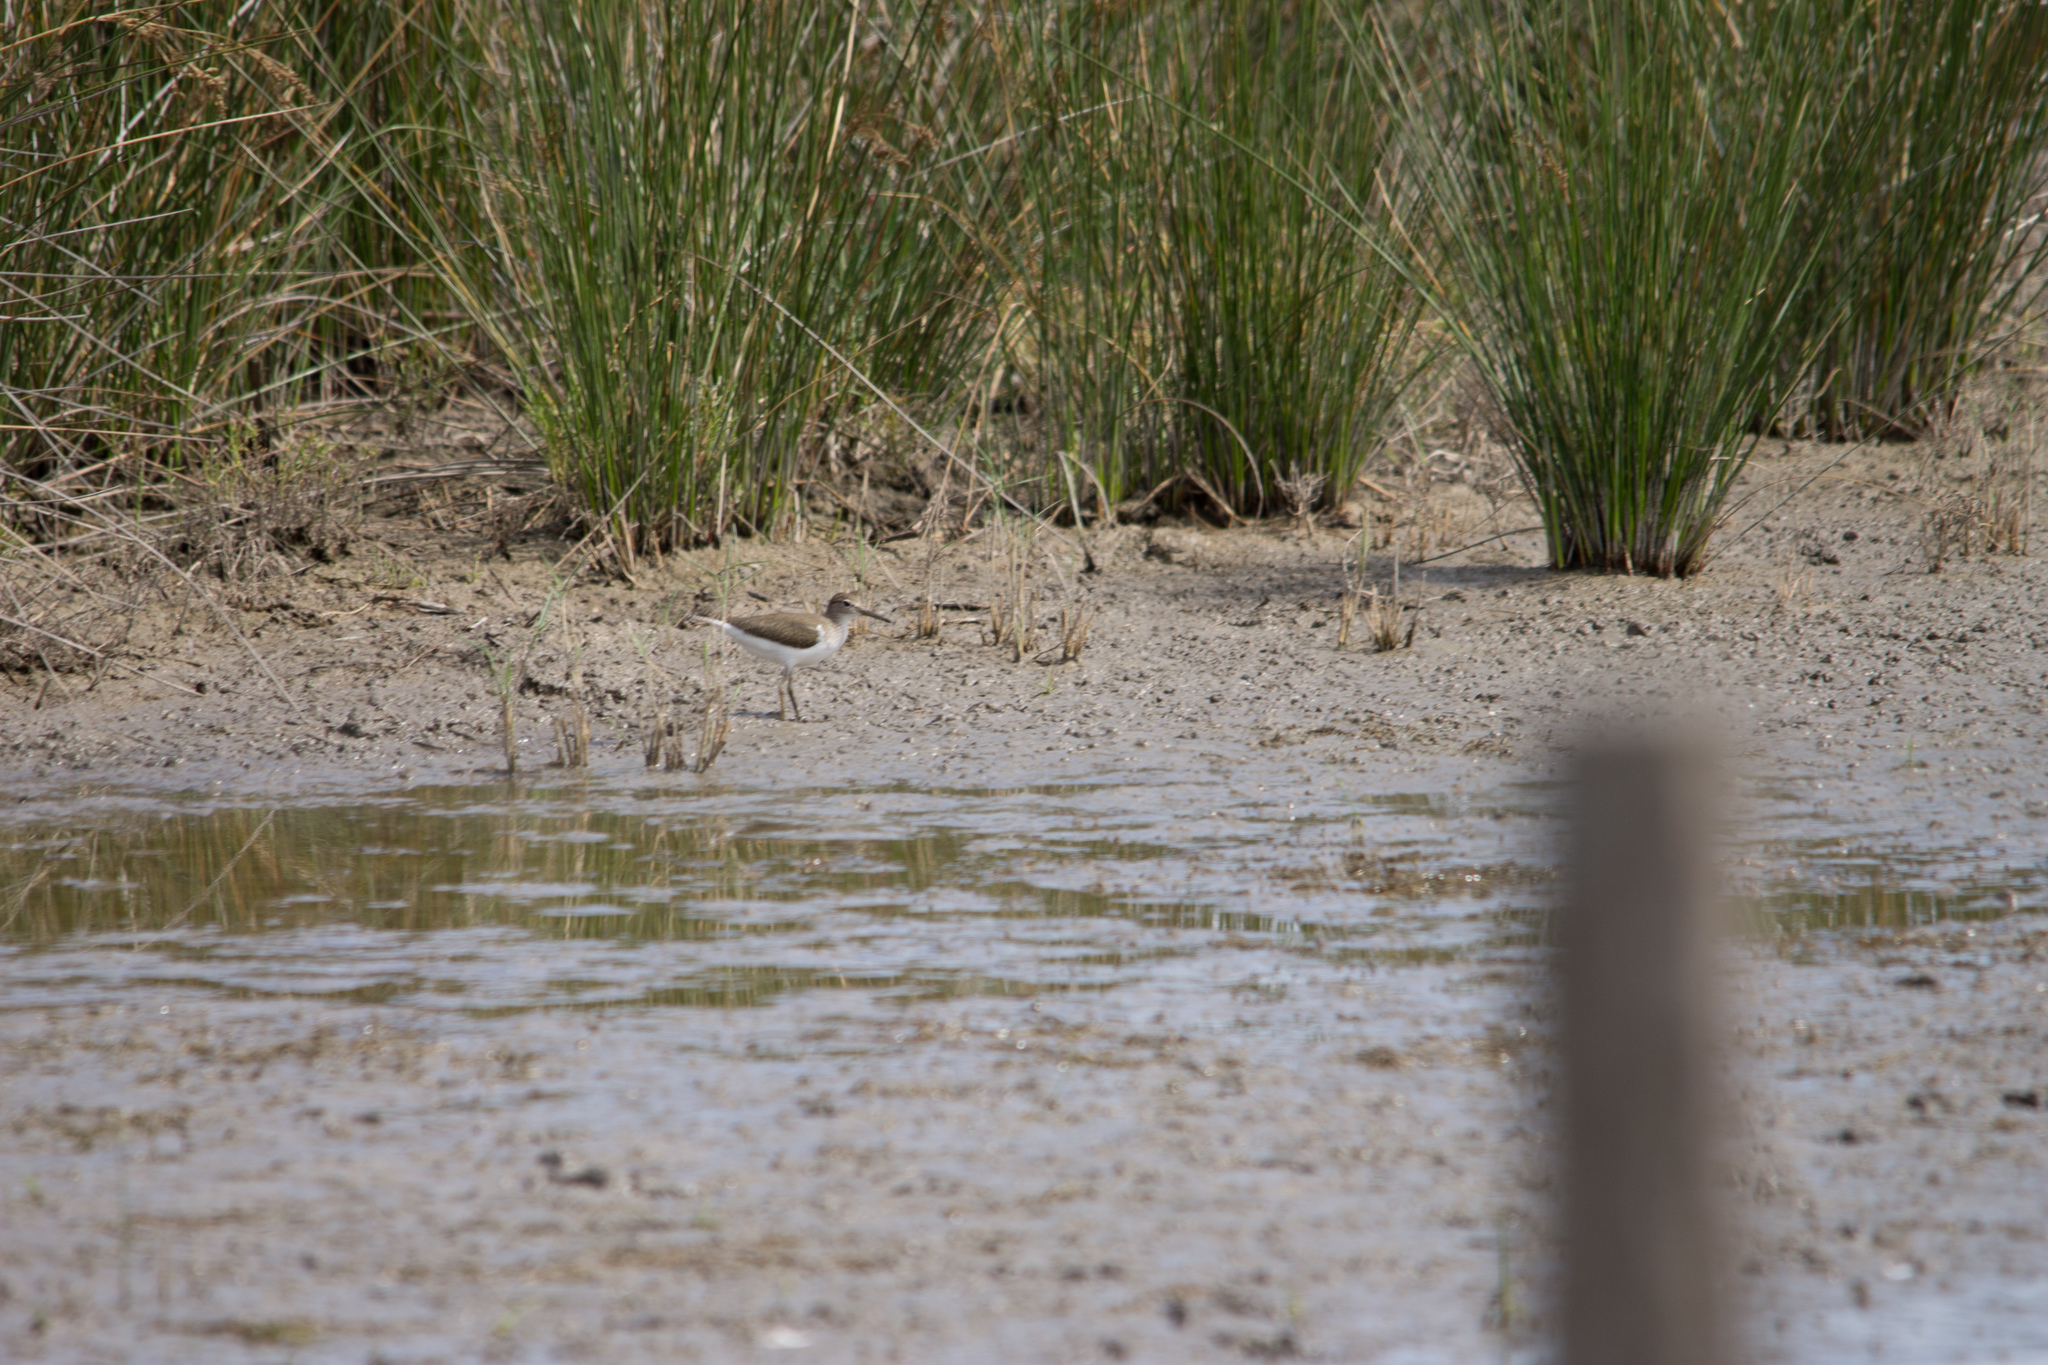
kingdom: Animalia
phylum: Chordata
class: Aves
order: Charadriiformes
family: Scolopacidae
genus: Actitis
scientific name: Actitis hypoleucos
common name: Common sandpiper
